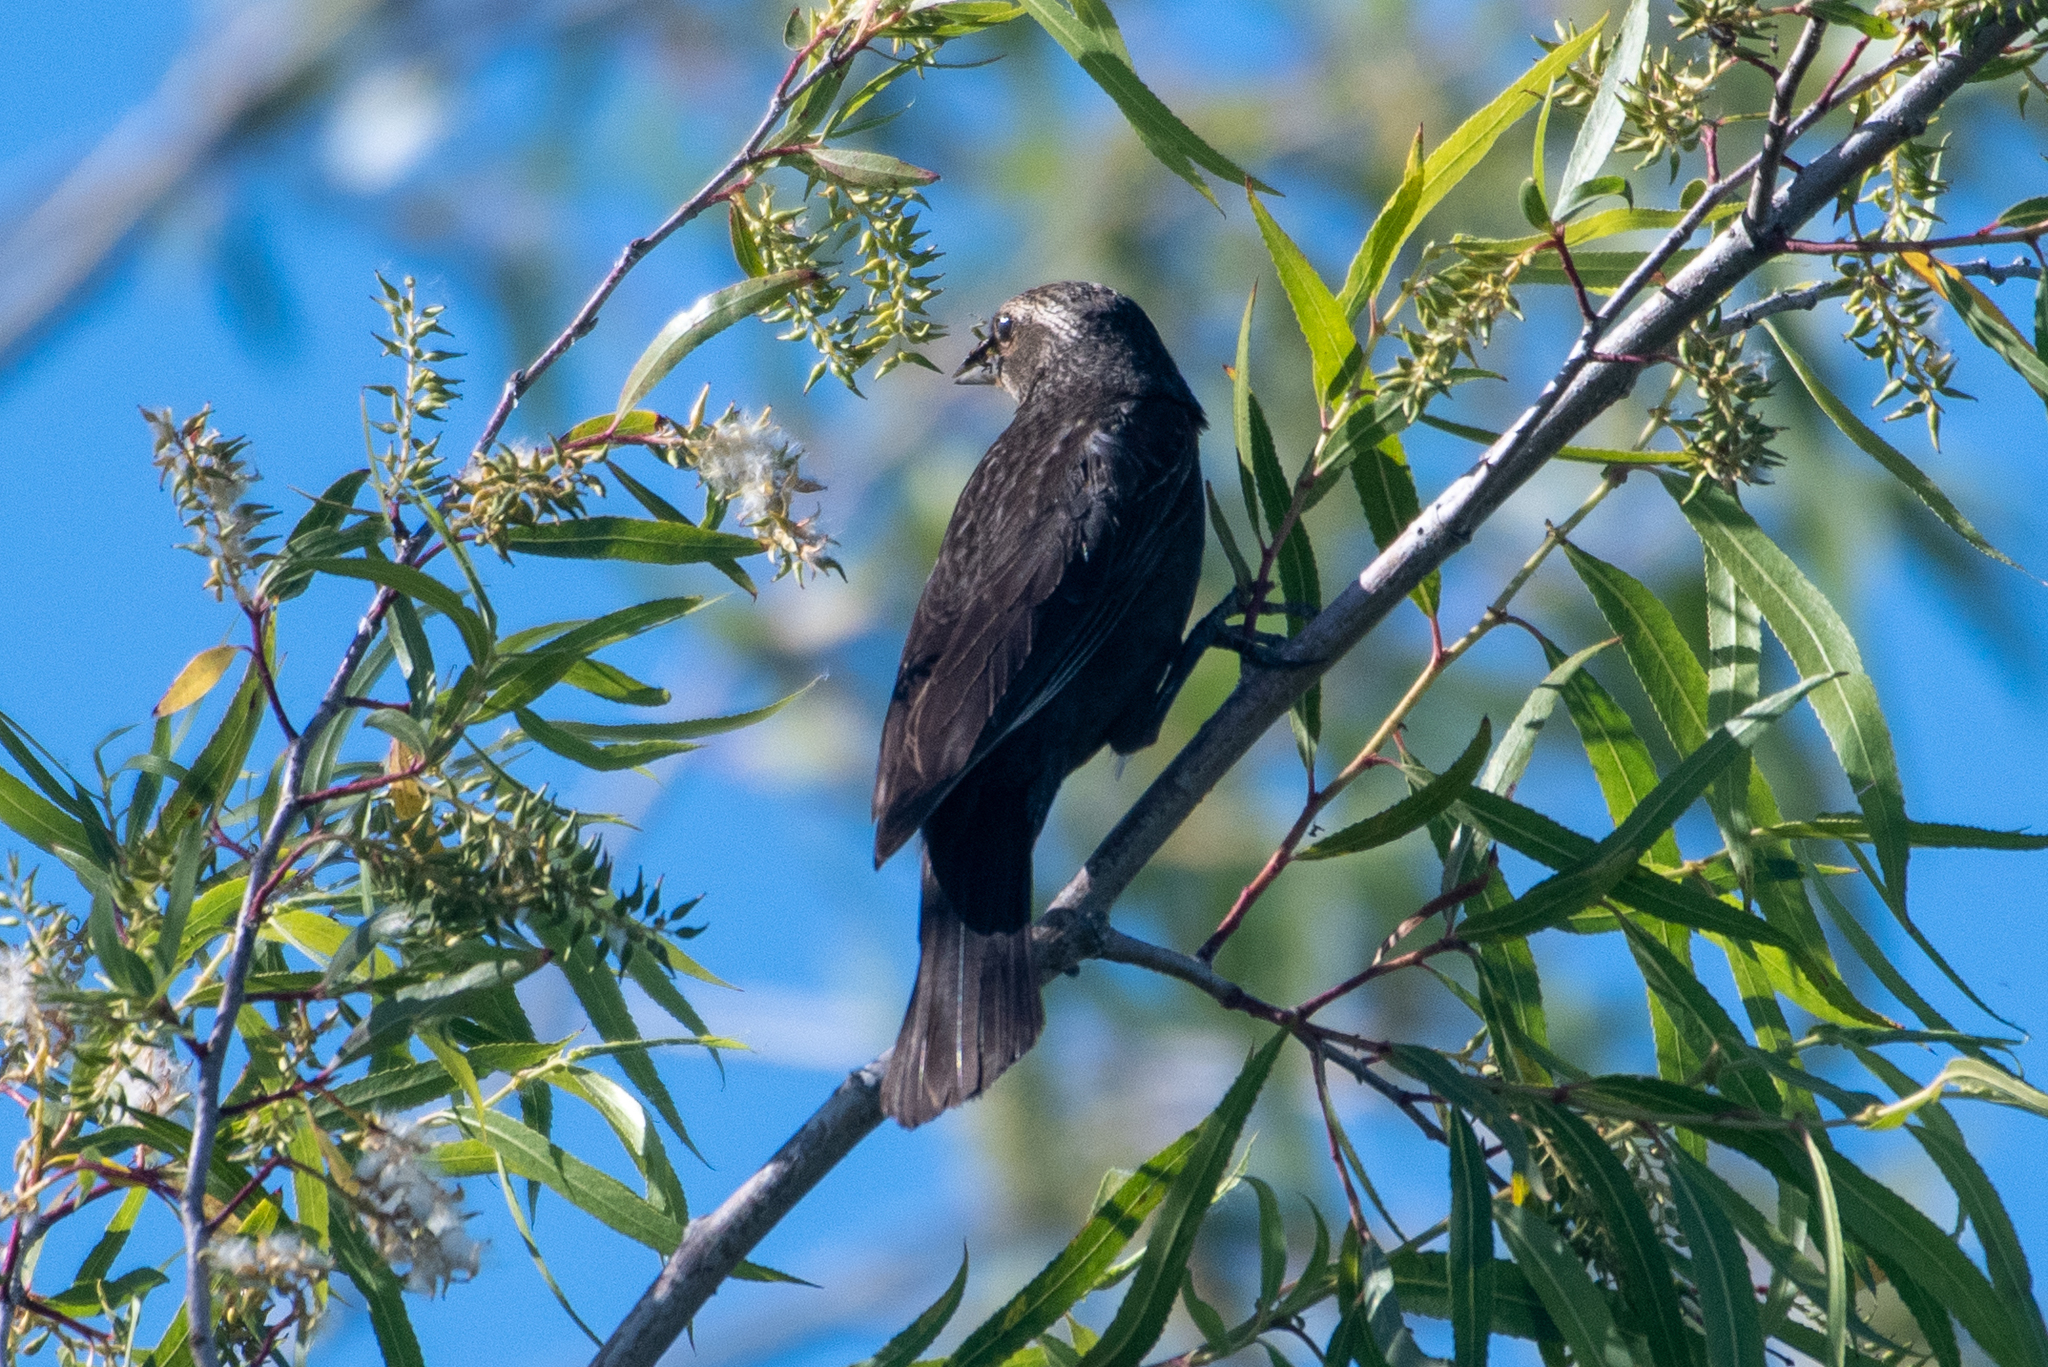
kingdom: Animalia
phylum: Chordata
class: Aves
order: Passeriformes
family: Icteridae
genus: Agelaius
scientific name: Agelaius phoeniceus
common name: Red-winged blackbird
